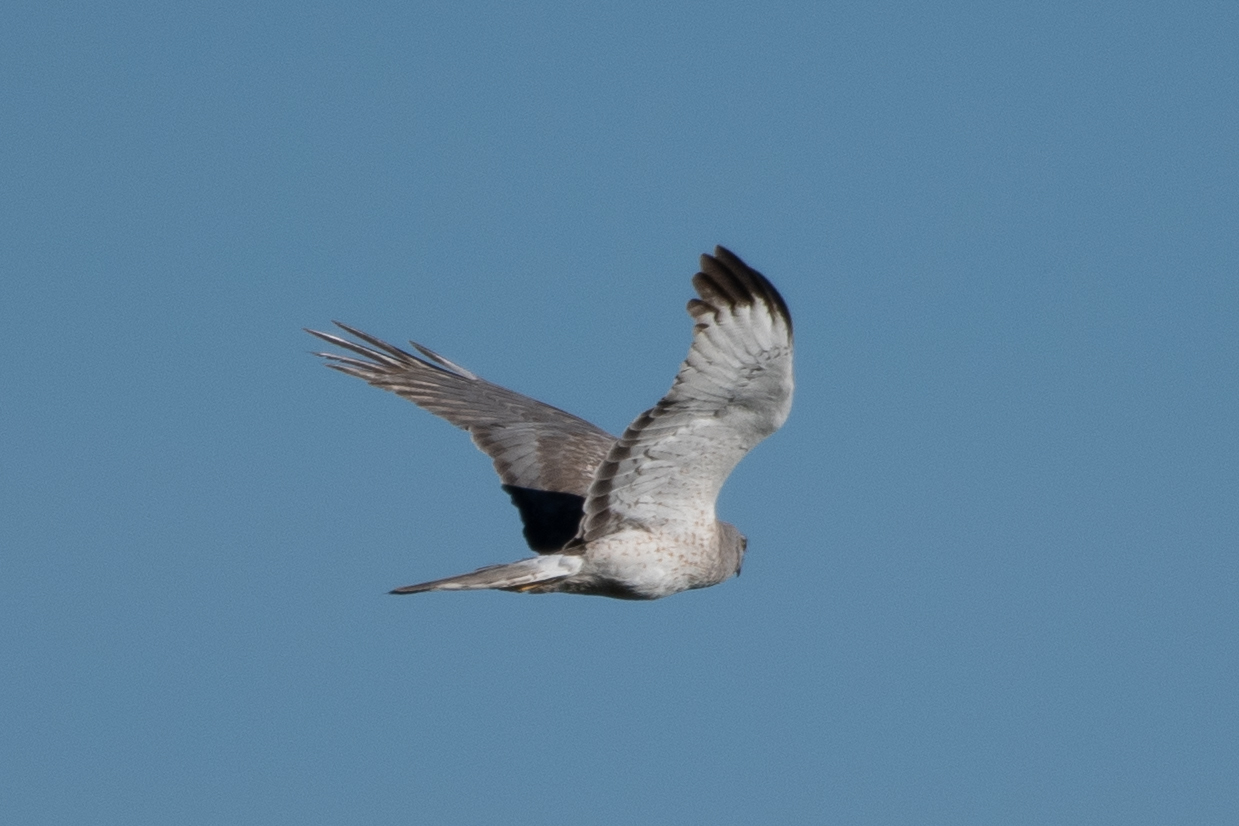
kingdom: Animalia
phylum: Chordata
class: Aves
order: Accipitriformes
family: Accipitridae
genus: Circus
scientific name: Circus cyaneus
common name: Hen harrier
